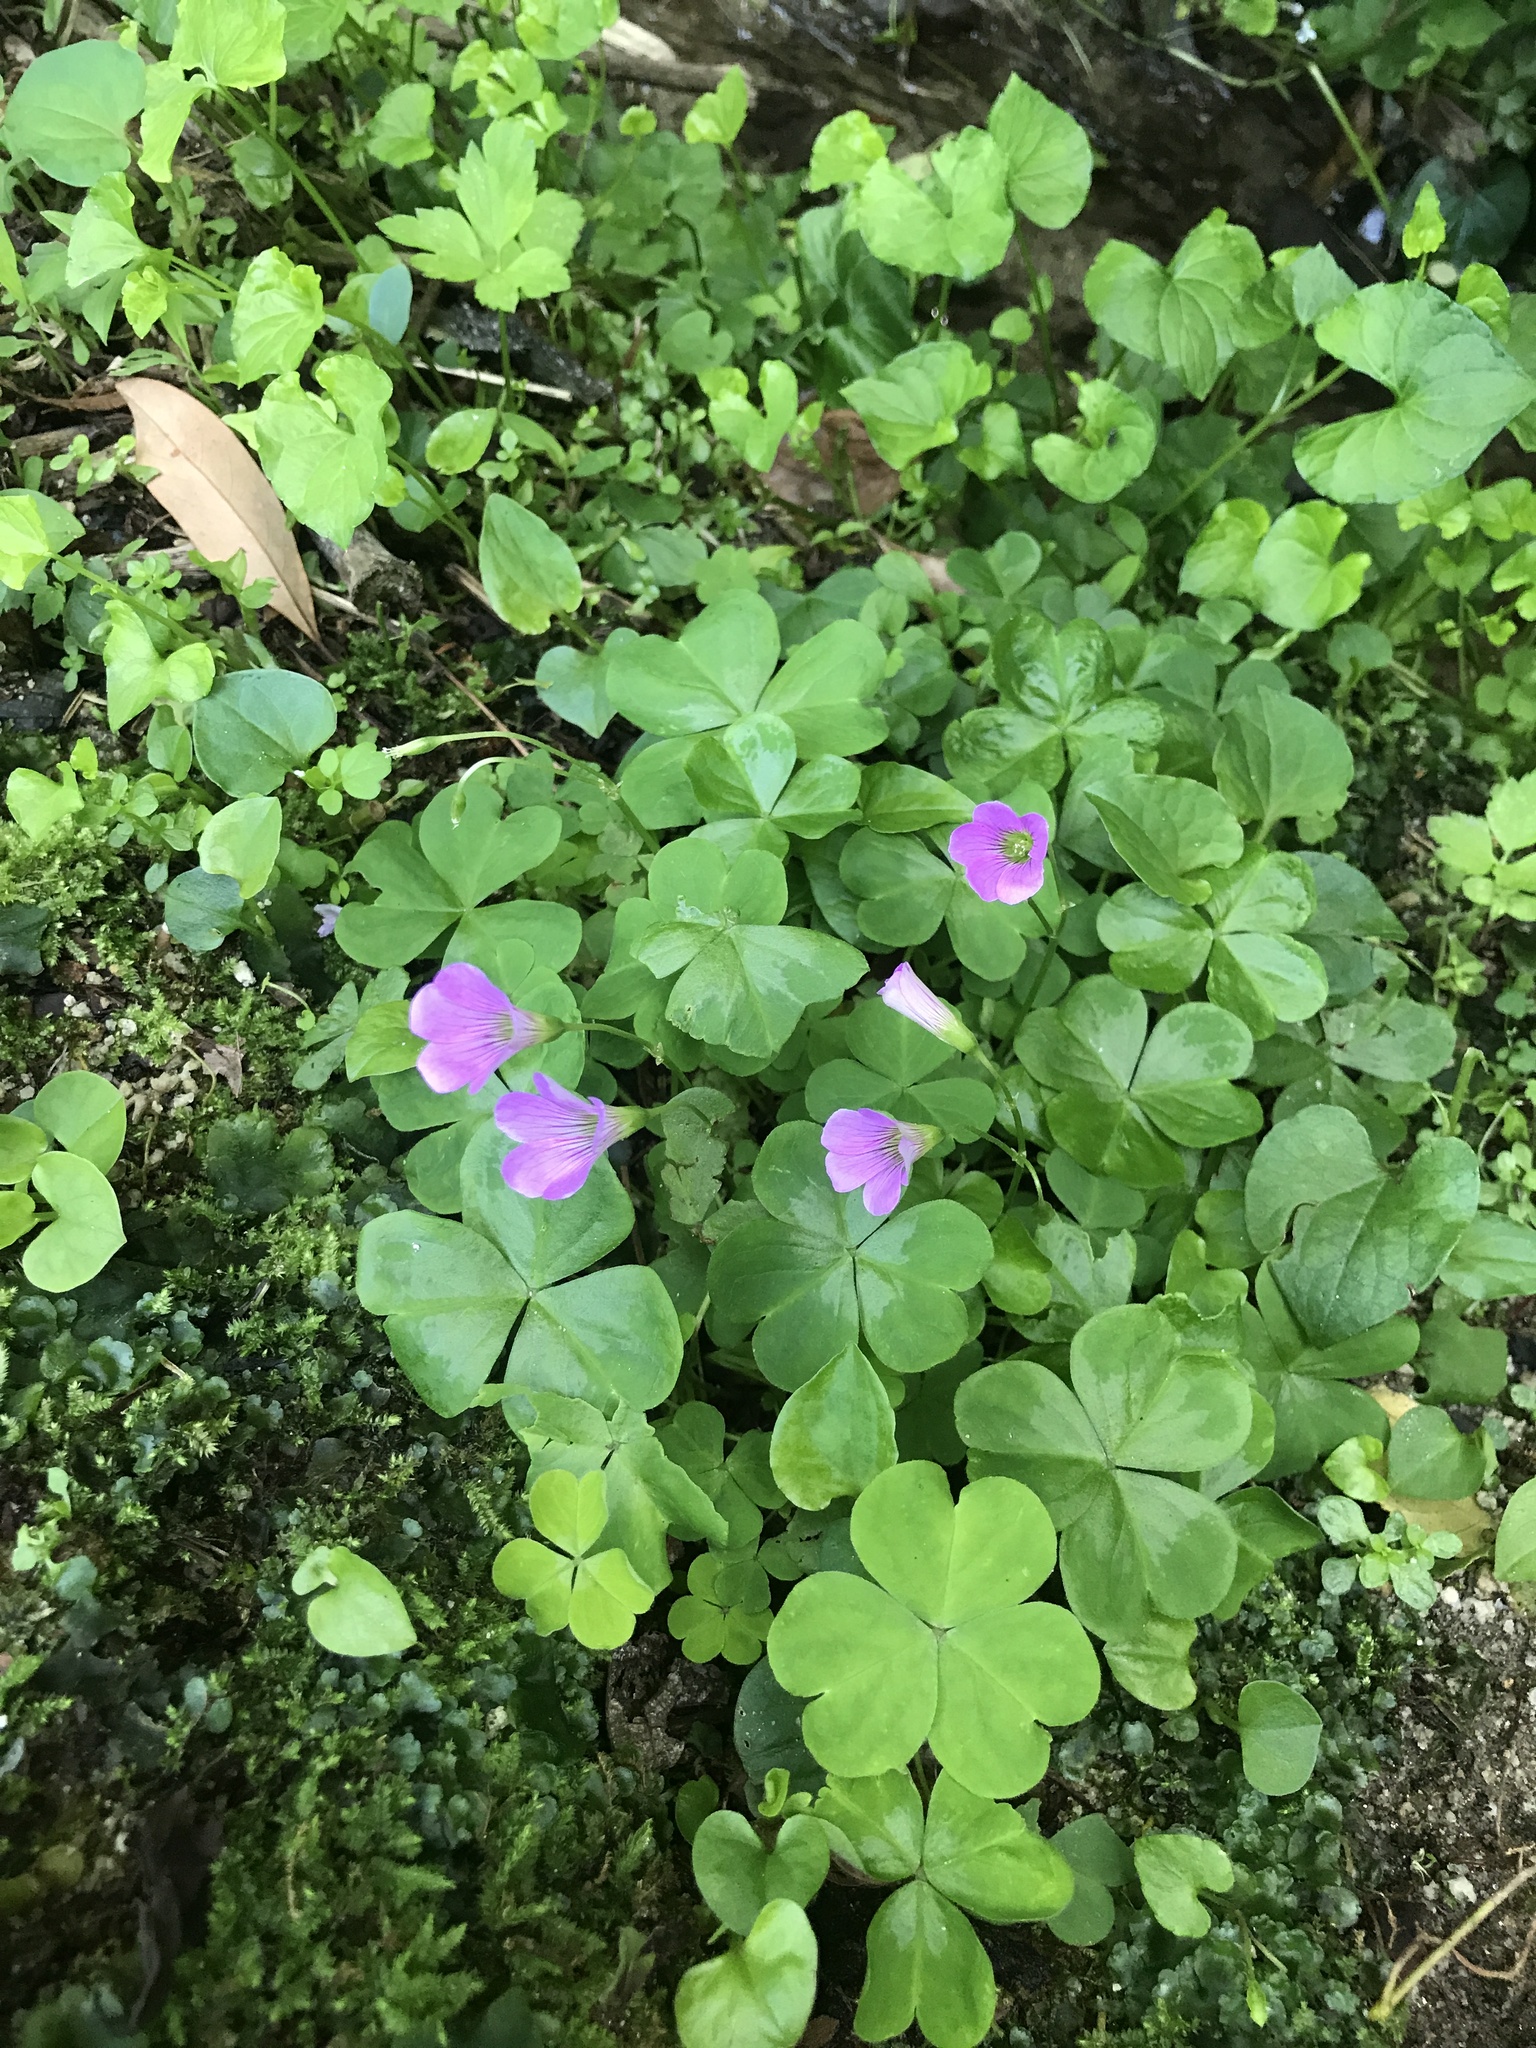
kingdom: Plantae
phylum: Tracheophyta
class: Magnoliopsida
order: Oxalidales
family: Oxalidaceae
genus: Oxalis
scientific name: Oxalis debilis
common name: Large-flowered pink-sorrel
